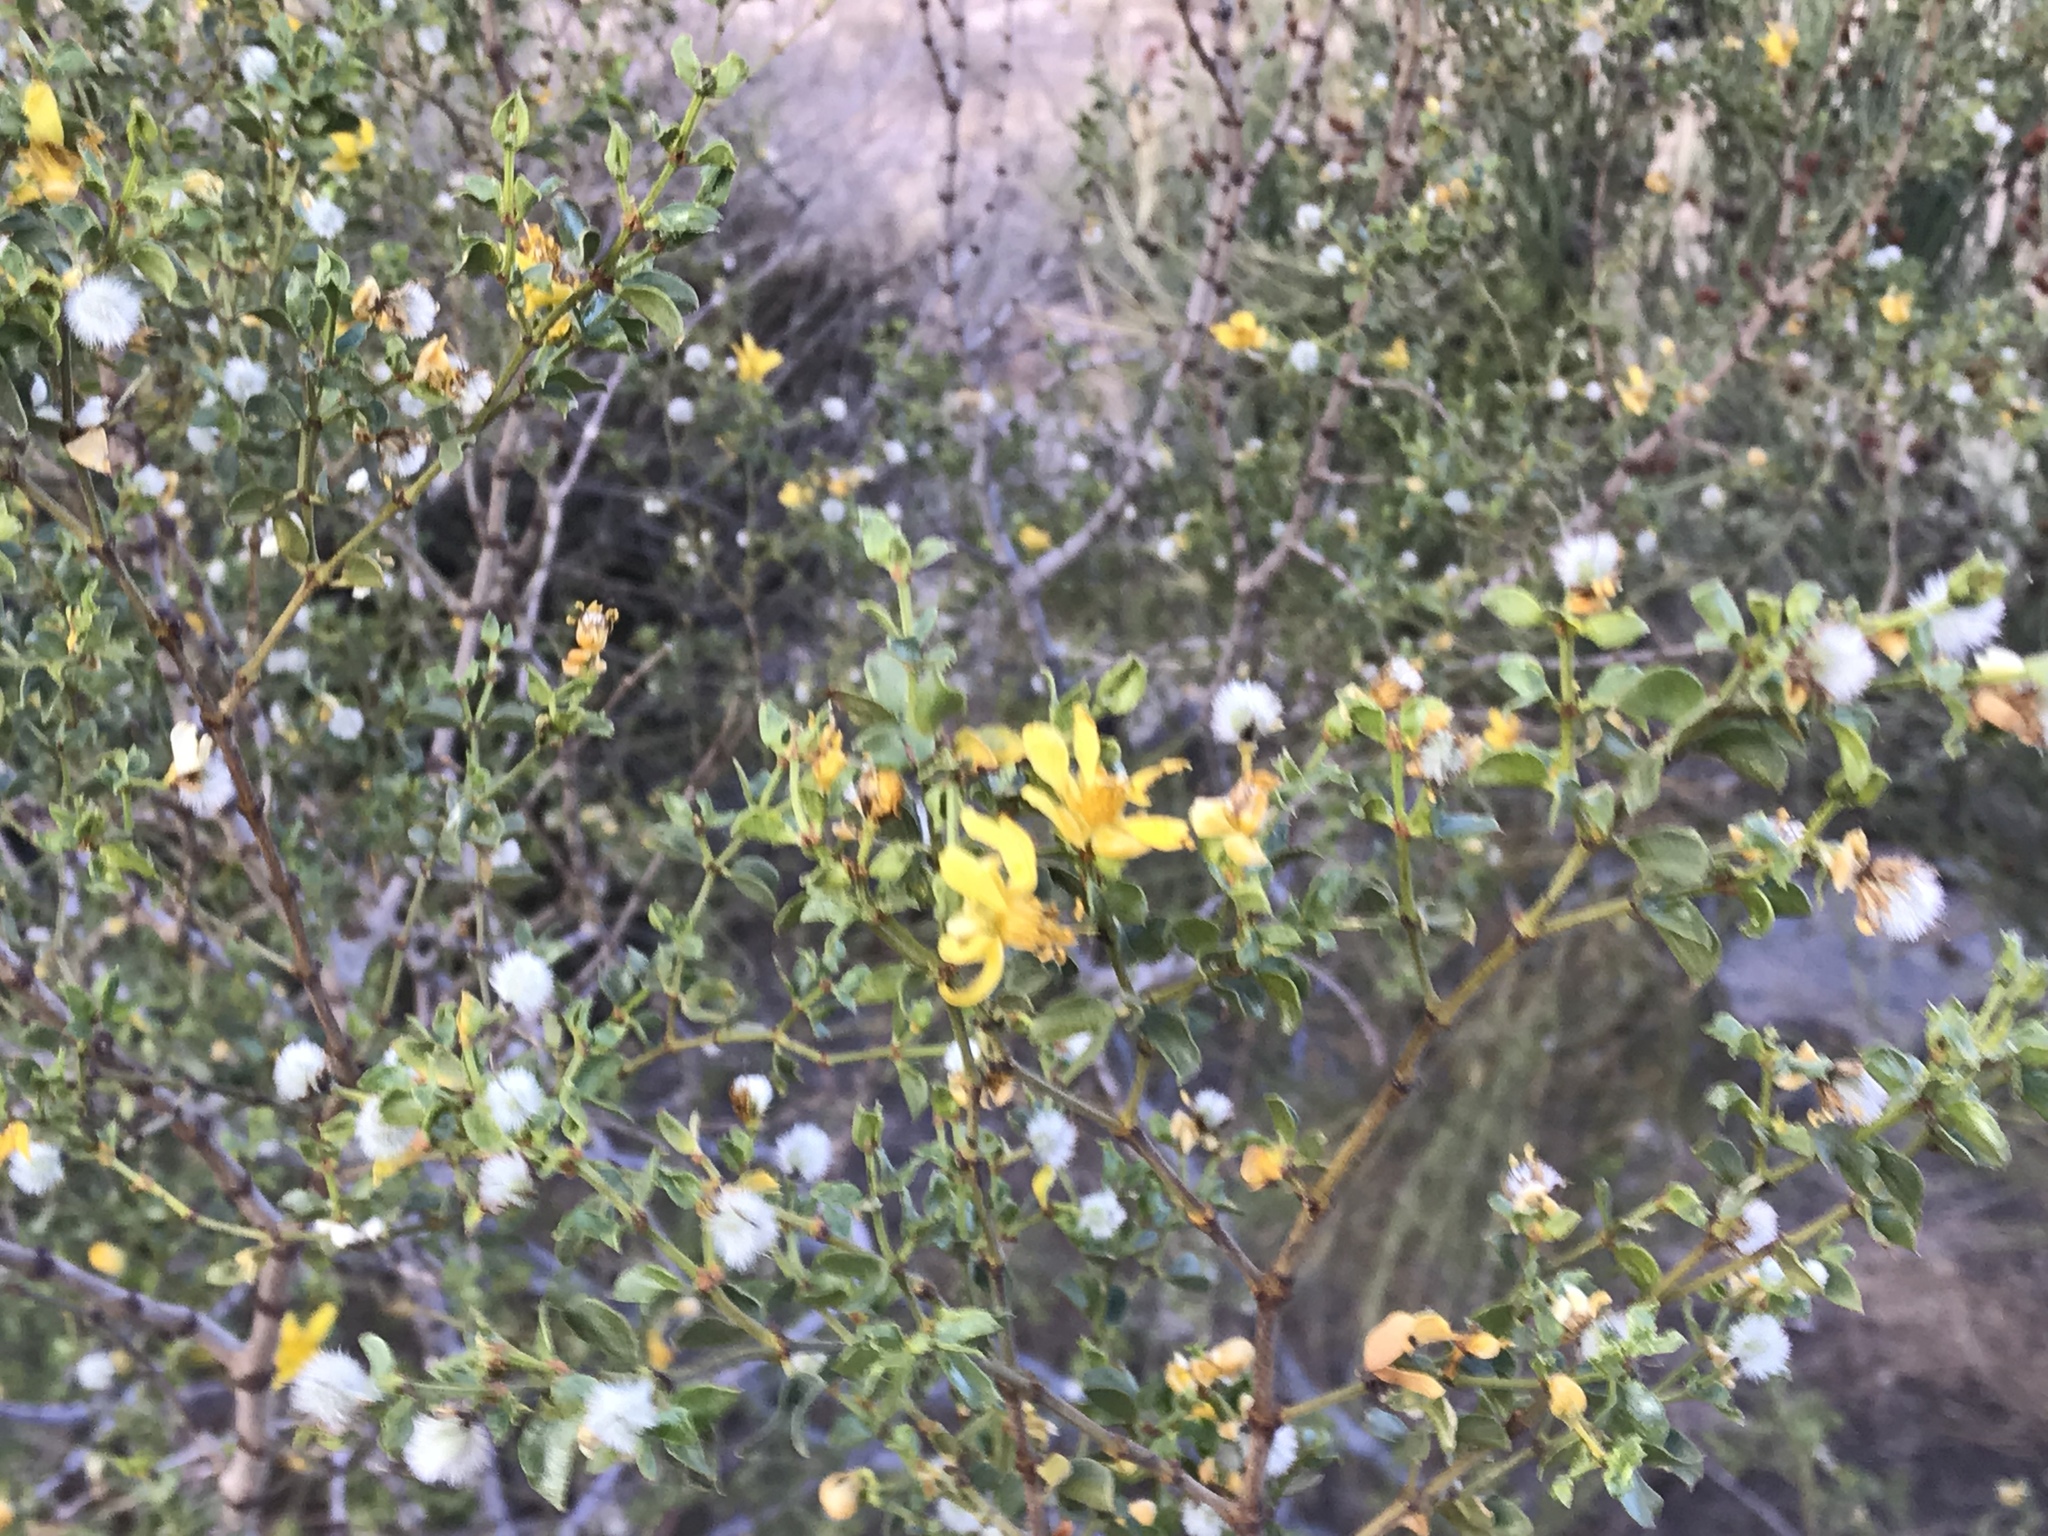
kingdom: Plantae
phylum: Tracheophyta
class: Magnoliopsida
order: Zygophyllales
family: Zygophyllaceae
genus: Larrea
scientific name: Larrea tridentata
